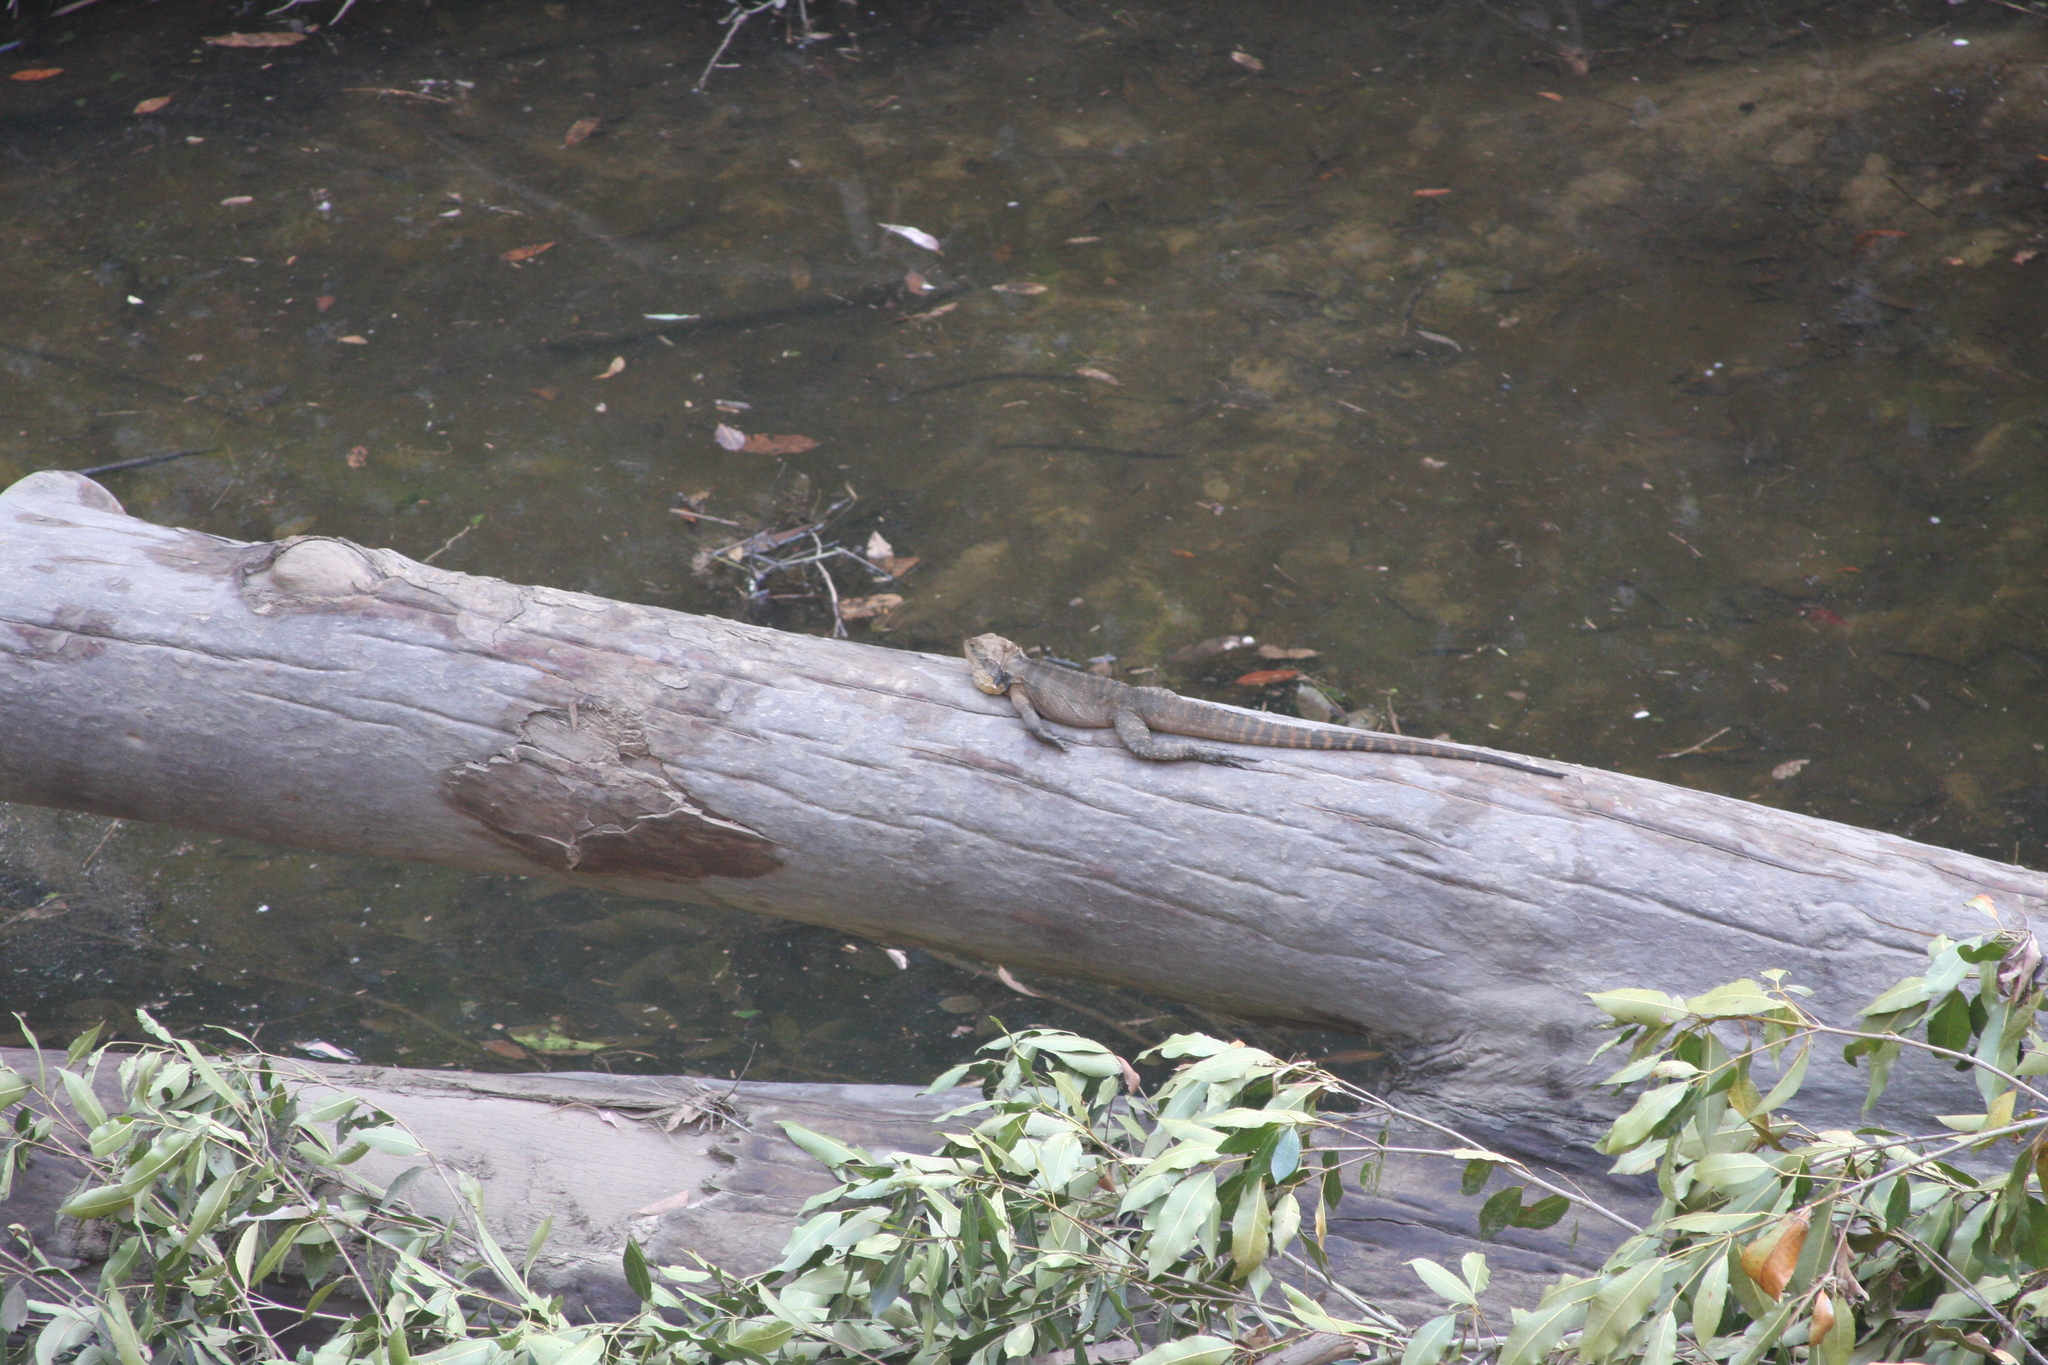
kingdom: Animalia
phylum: Chordata
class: Squamata
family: Agamidae
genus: Intellagama
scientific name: Intellagama lesueurii
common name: Eastern water dragon
